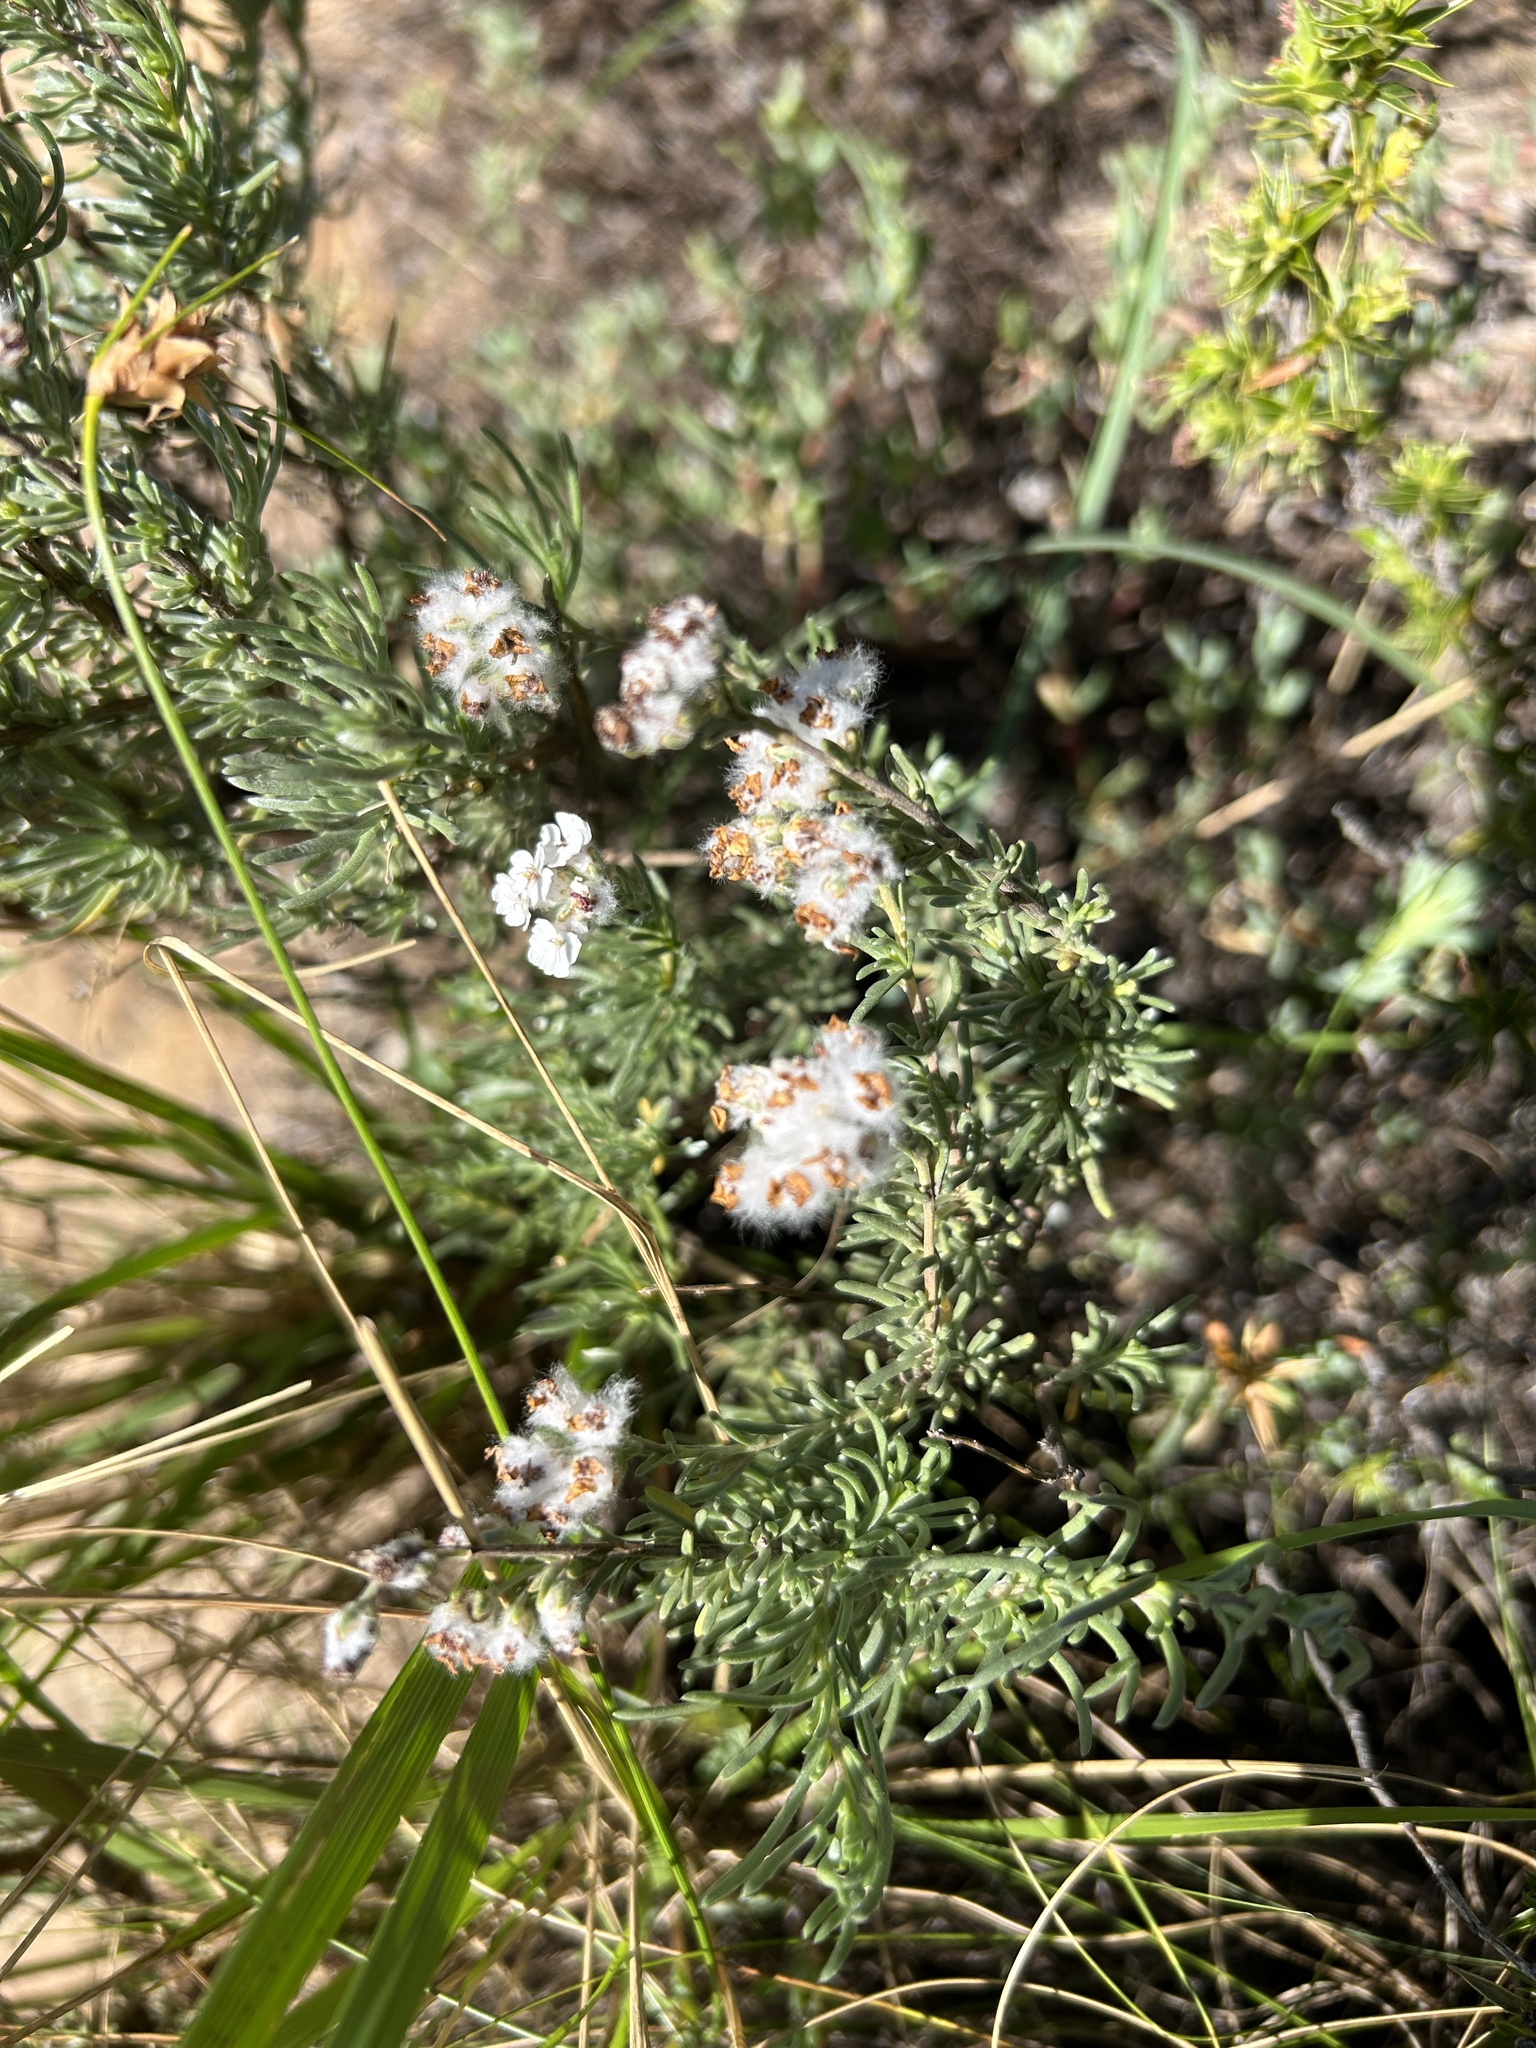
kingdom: Plantae
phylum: Tracheophyta
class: Magnoliopsida
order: Asterales
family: Asteraceae
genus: Eriocephalus
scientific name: Eriocephalus africanus
